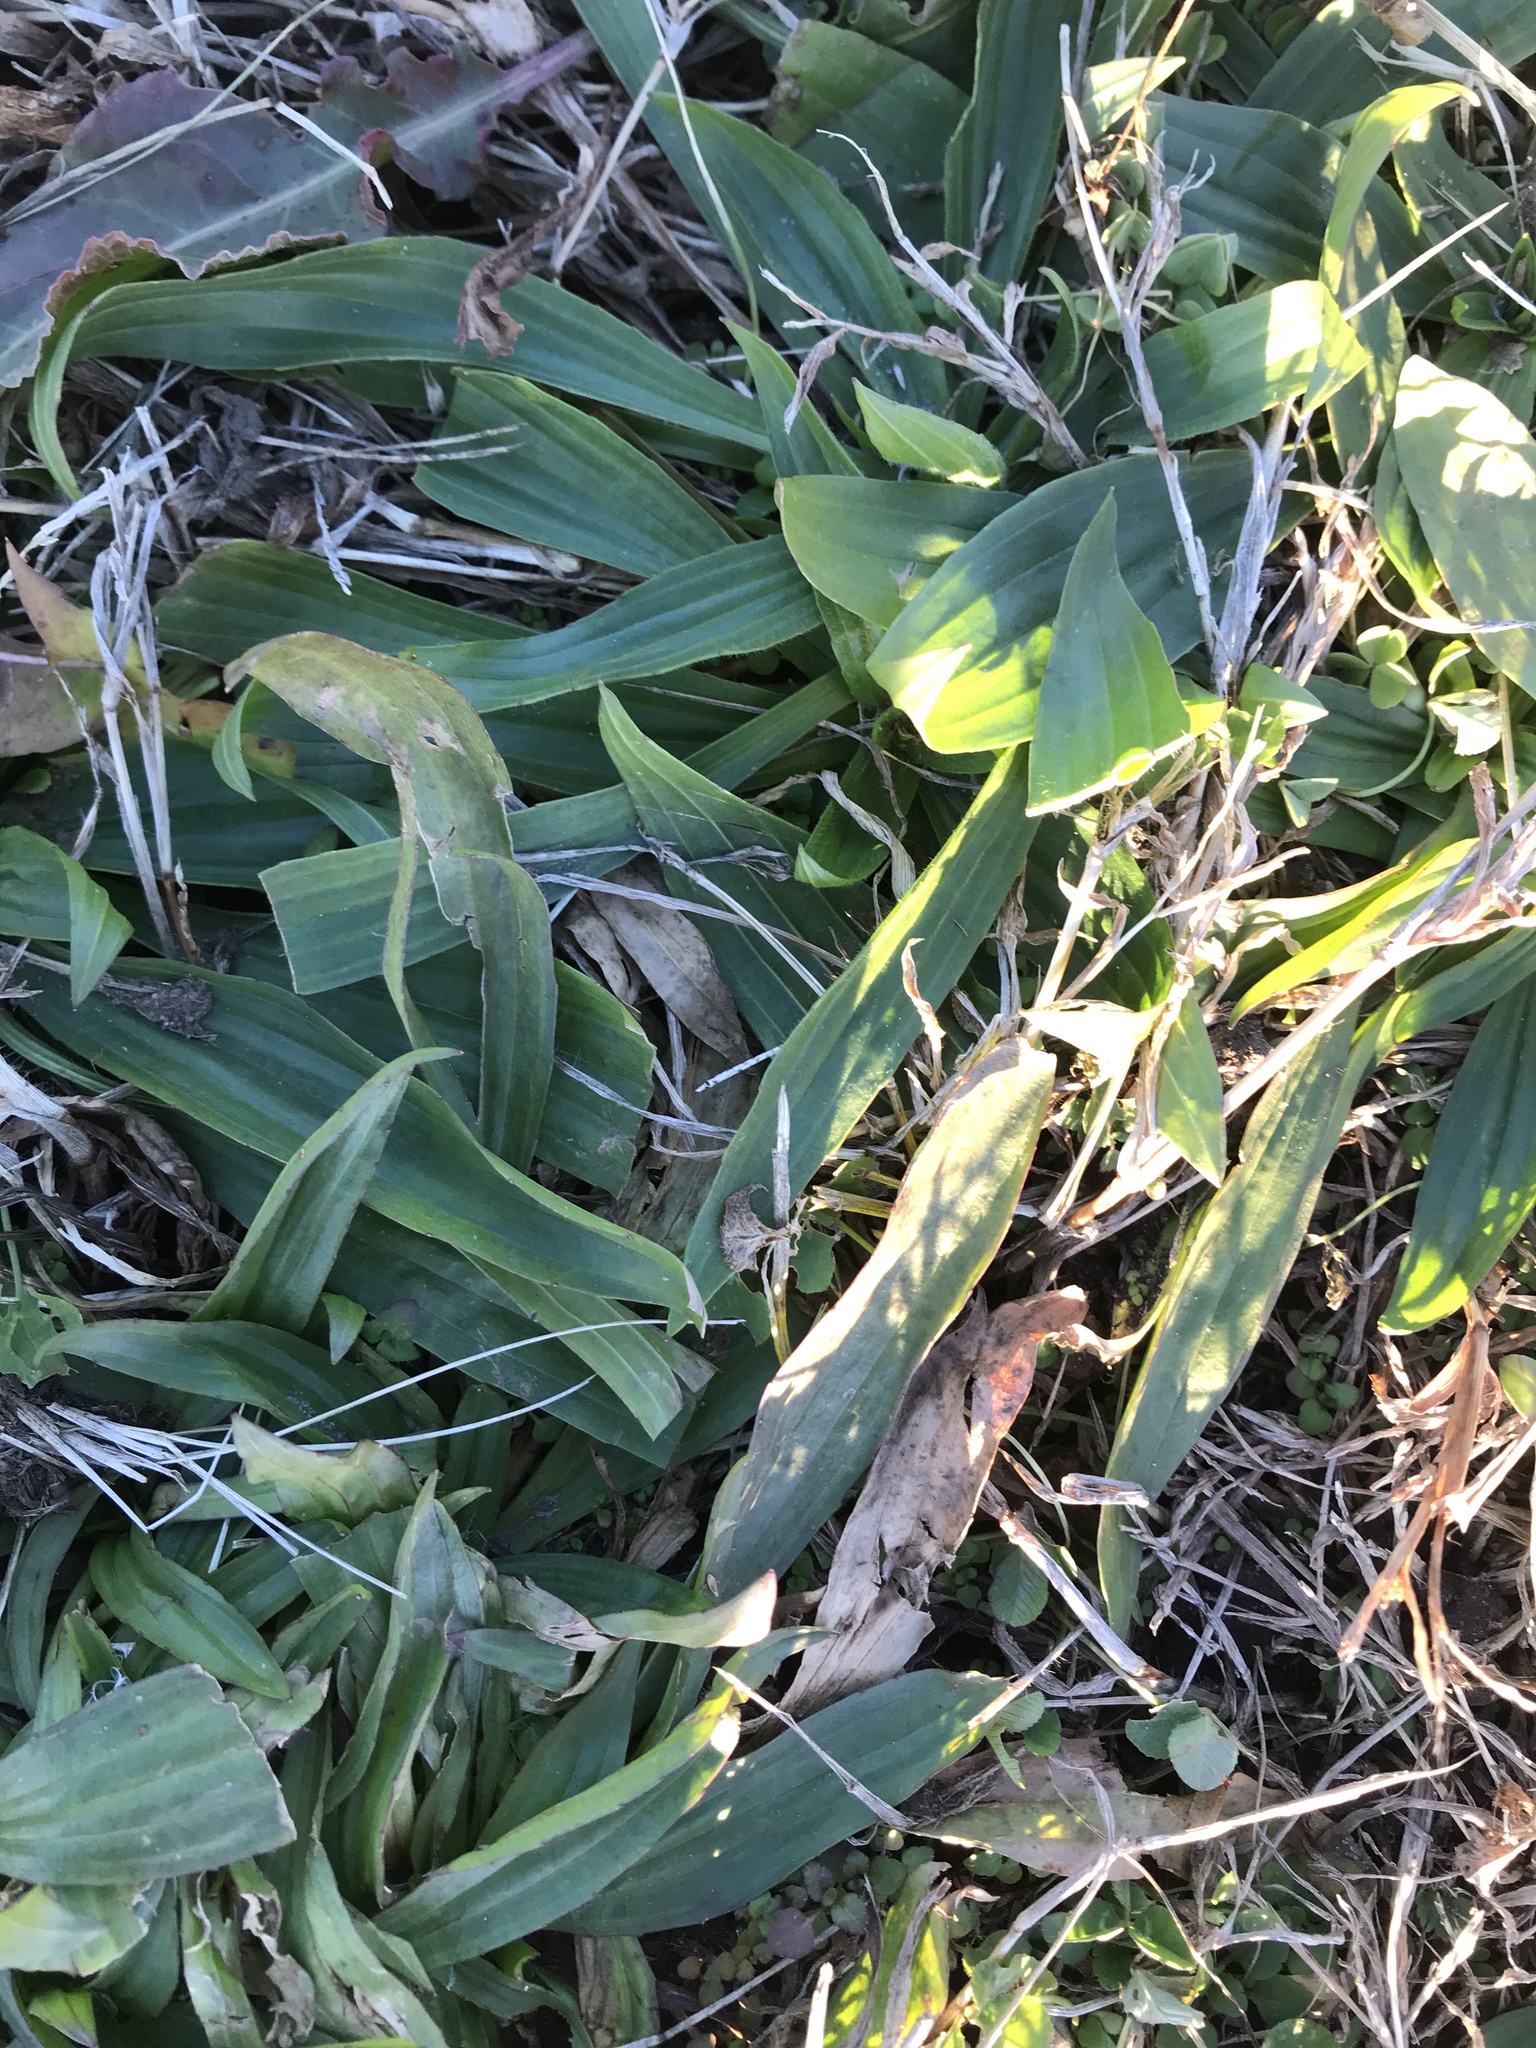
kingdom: Plantae
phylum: Tracheophyta
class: Magnoliopsida
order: Lamiales
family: Plantaginaceae
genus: Plantago
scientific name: Plantago lanceolata
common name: Ribwort plantain
